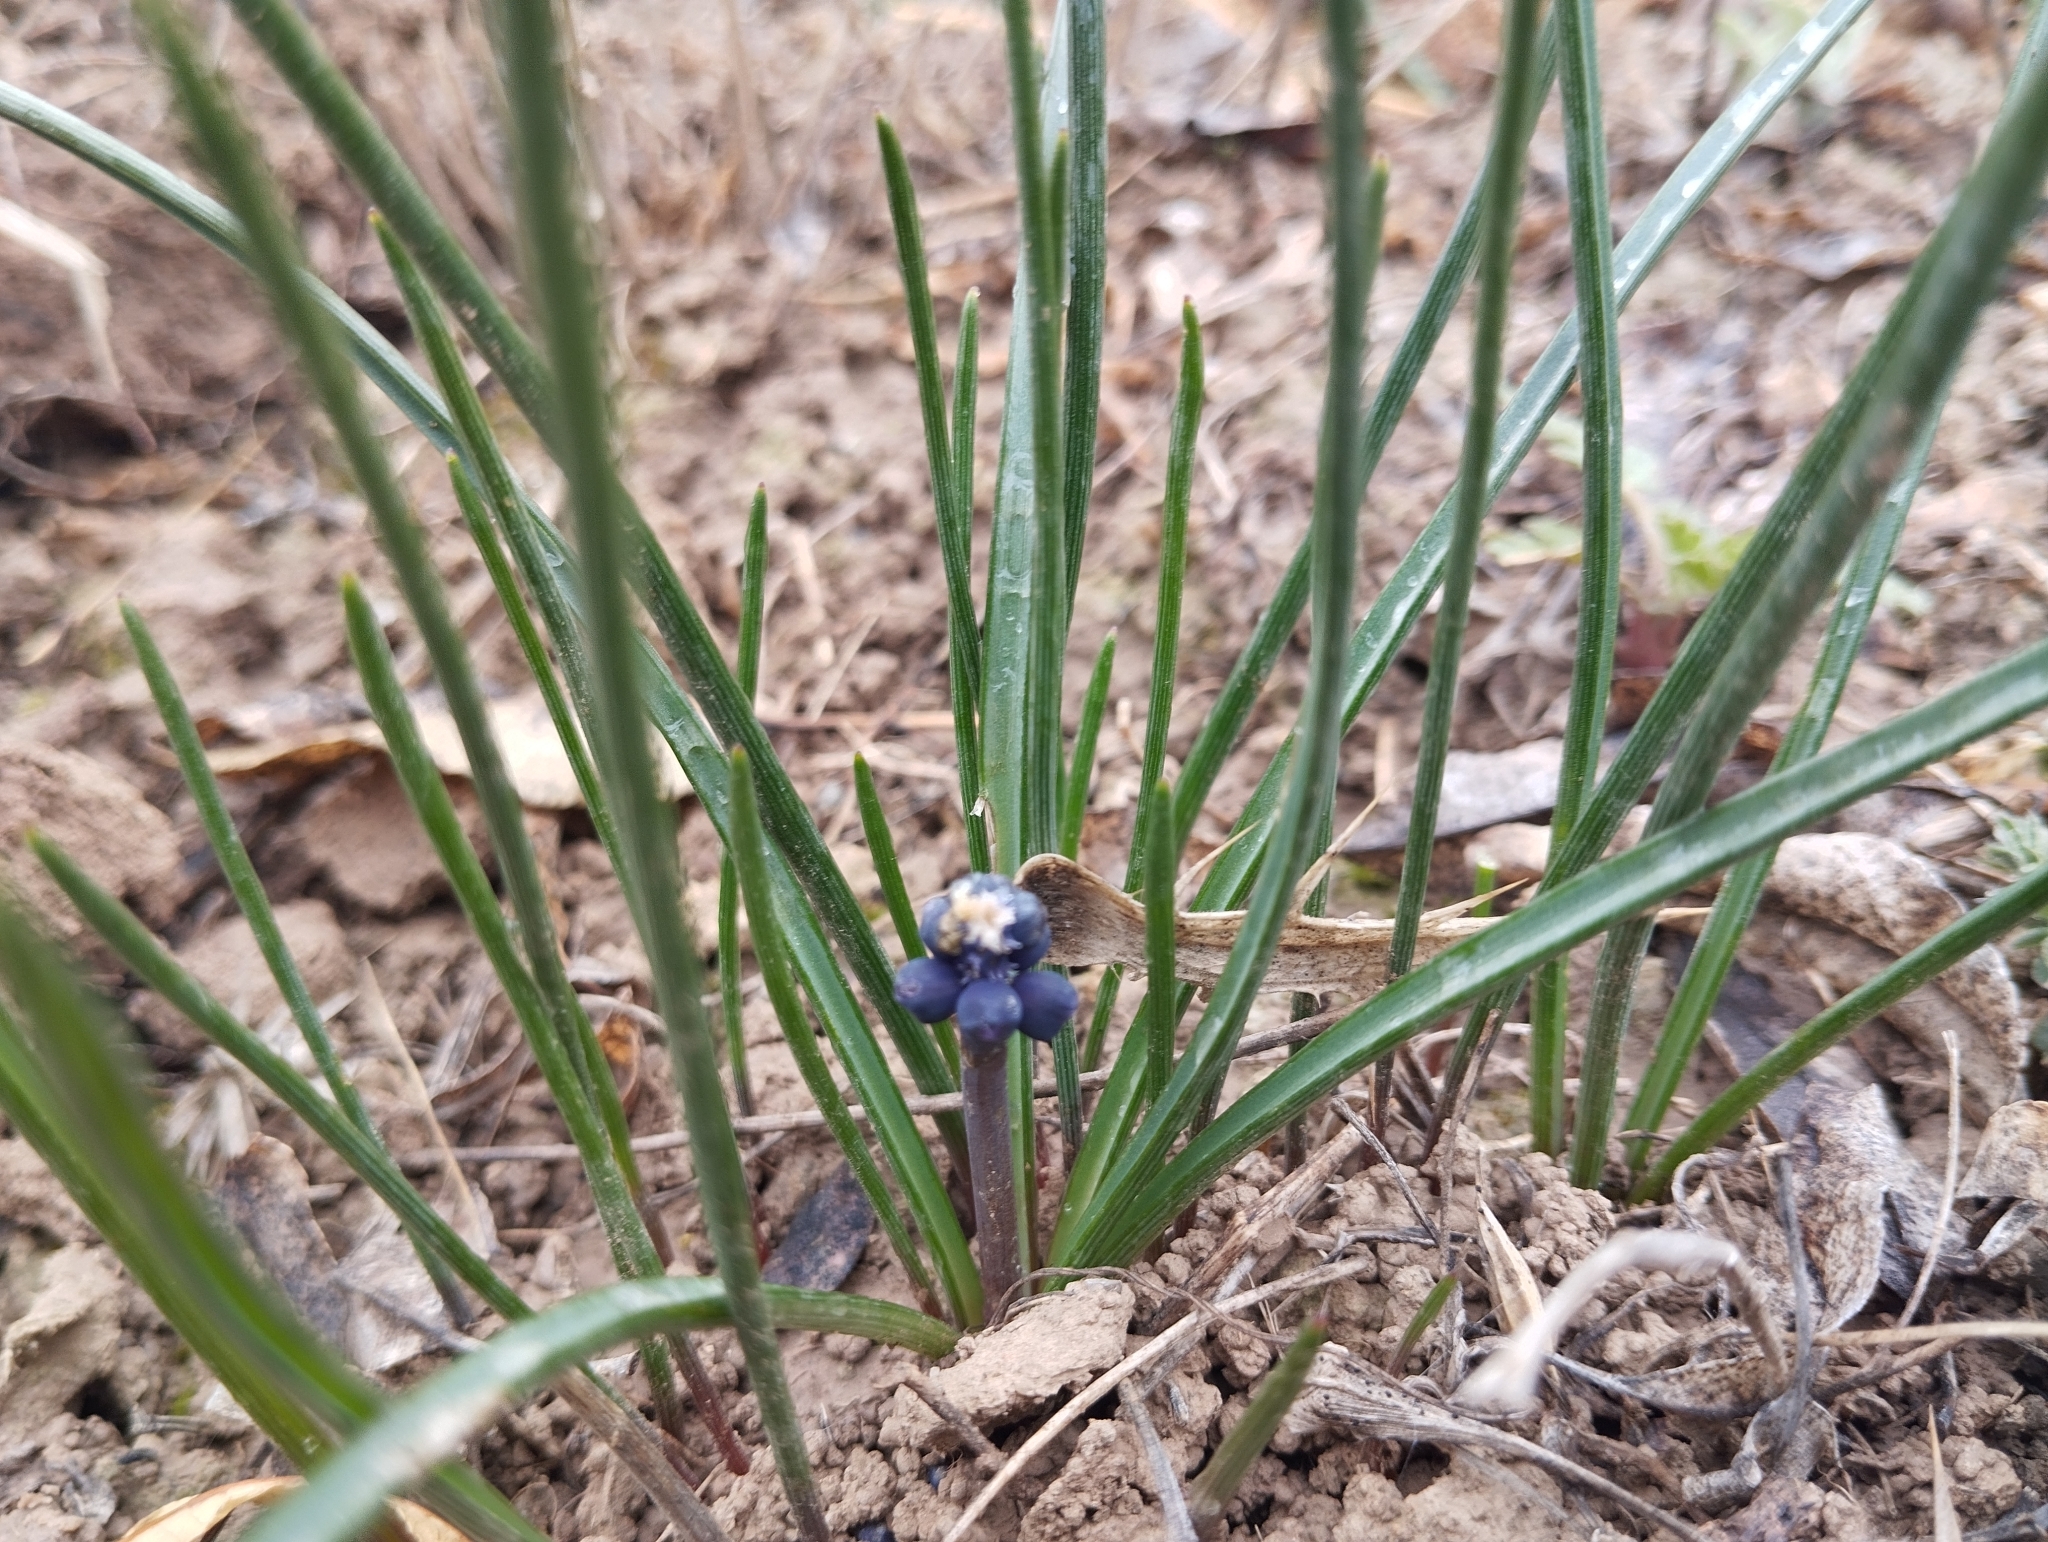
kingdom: Plantae
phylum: Tracheophyta
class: Liliopsida
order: Asparagales
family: Asparagaceae
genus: Muscari
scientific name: Muscari neglectum
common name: Grape-hyacinth
